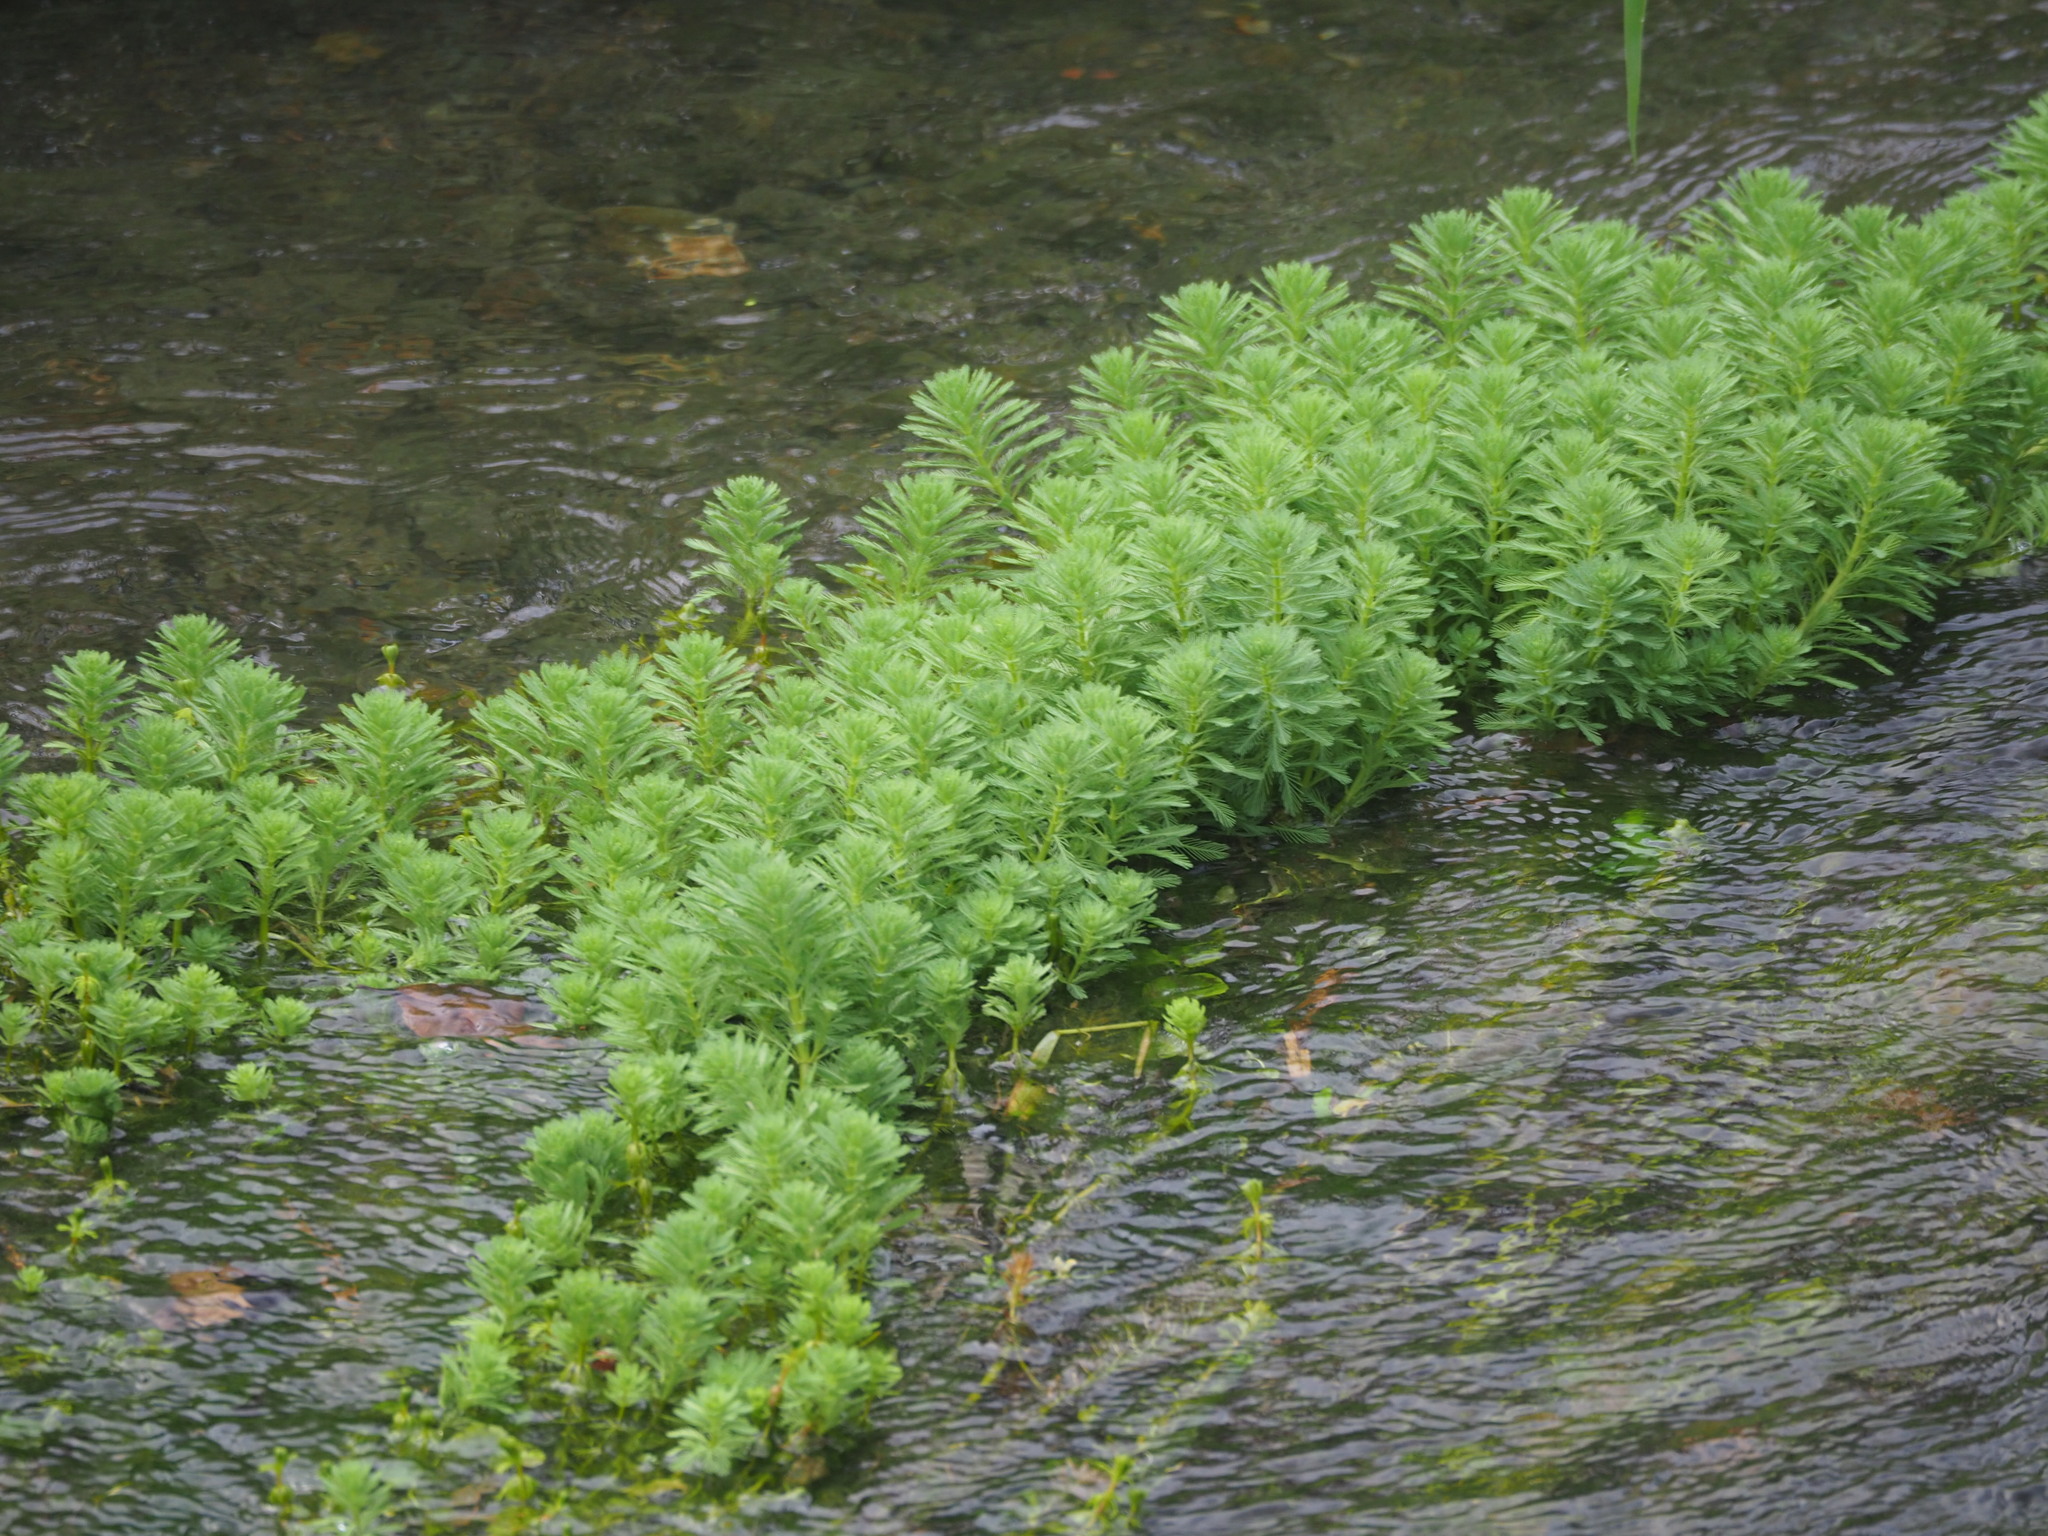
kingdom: Plantae
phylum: Tracheophyta
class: Magnoliopsida
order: Saxifragales
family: Haloragaceae
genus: Myriophyllum
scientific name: Myriophyllum aquaticum
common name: Parrot's feather
